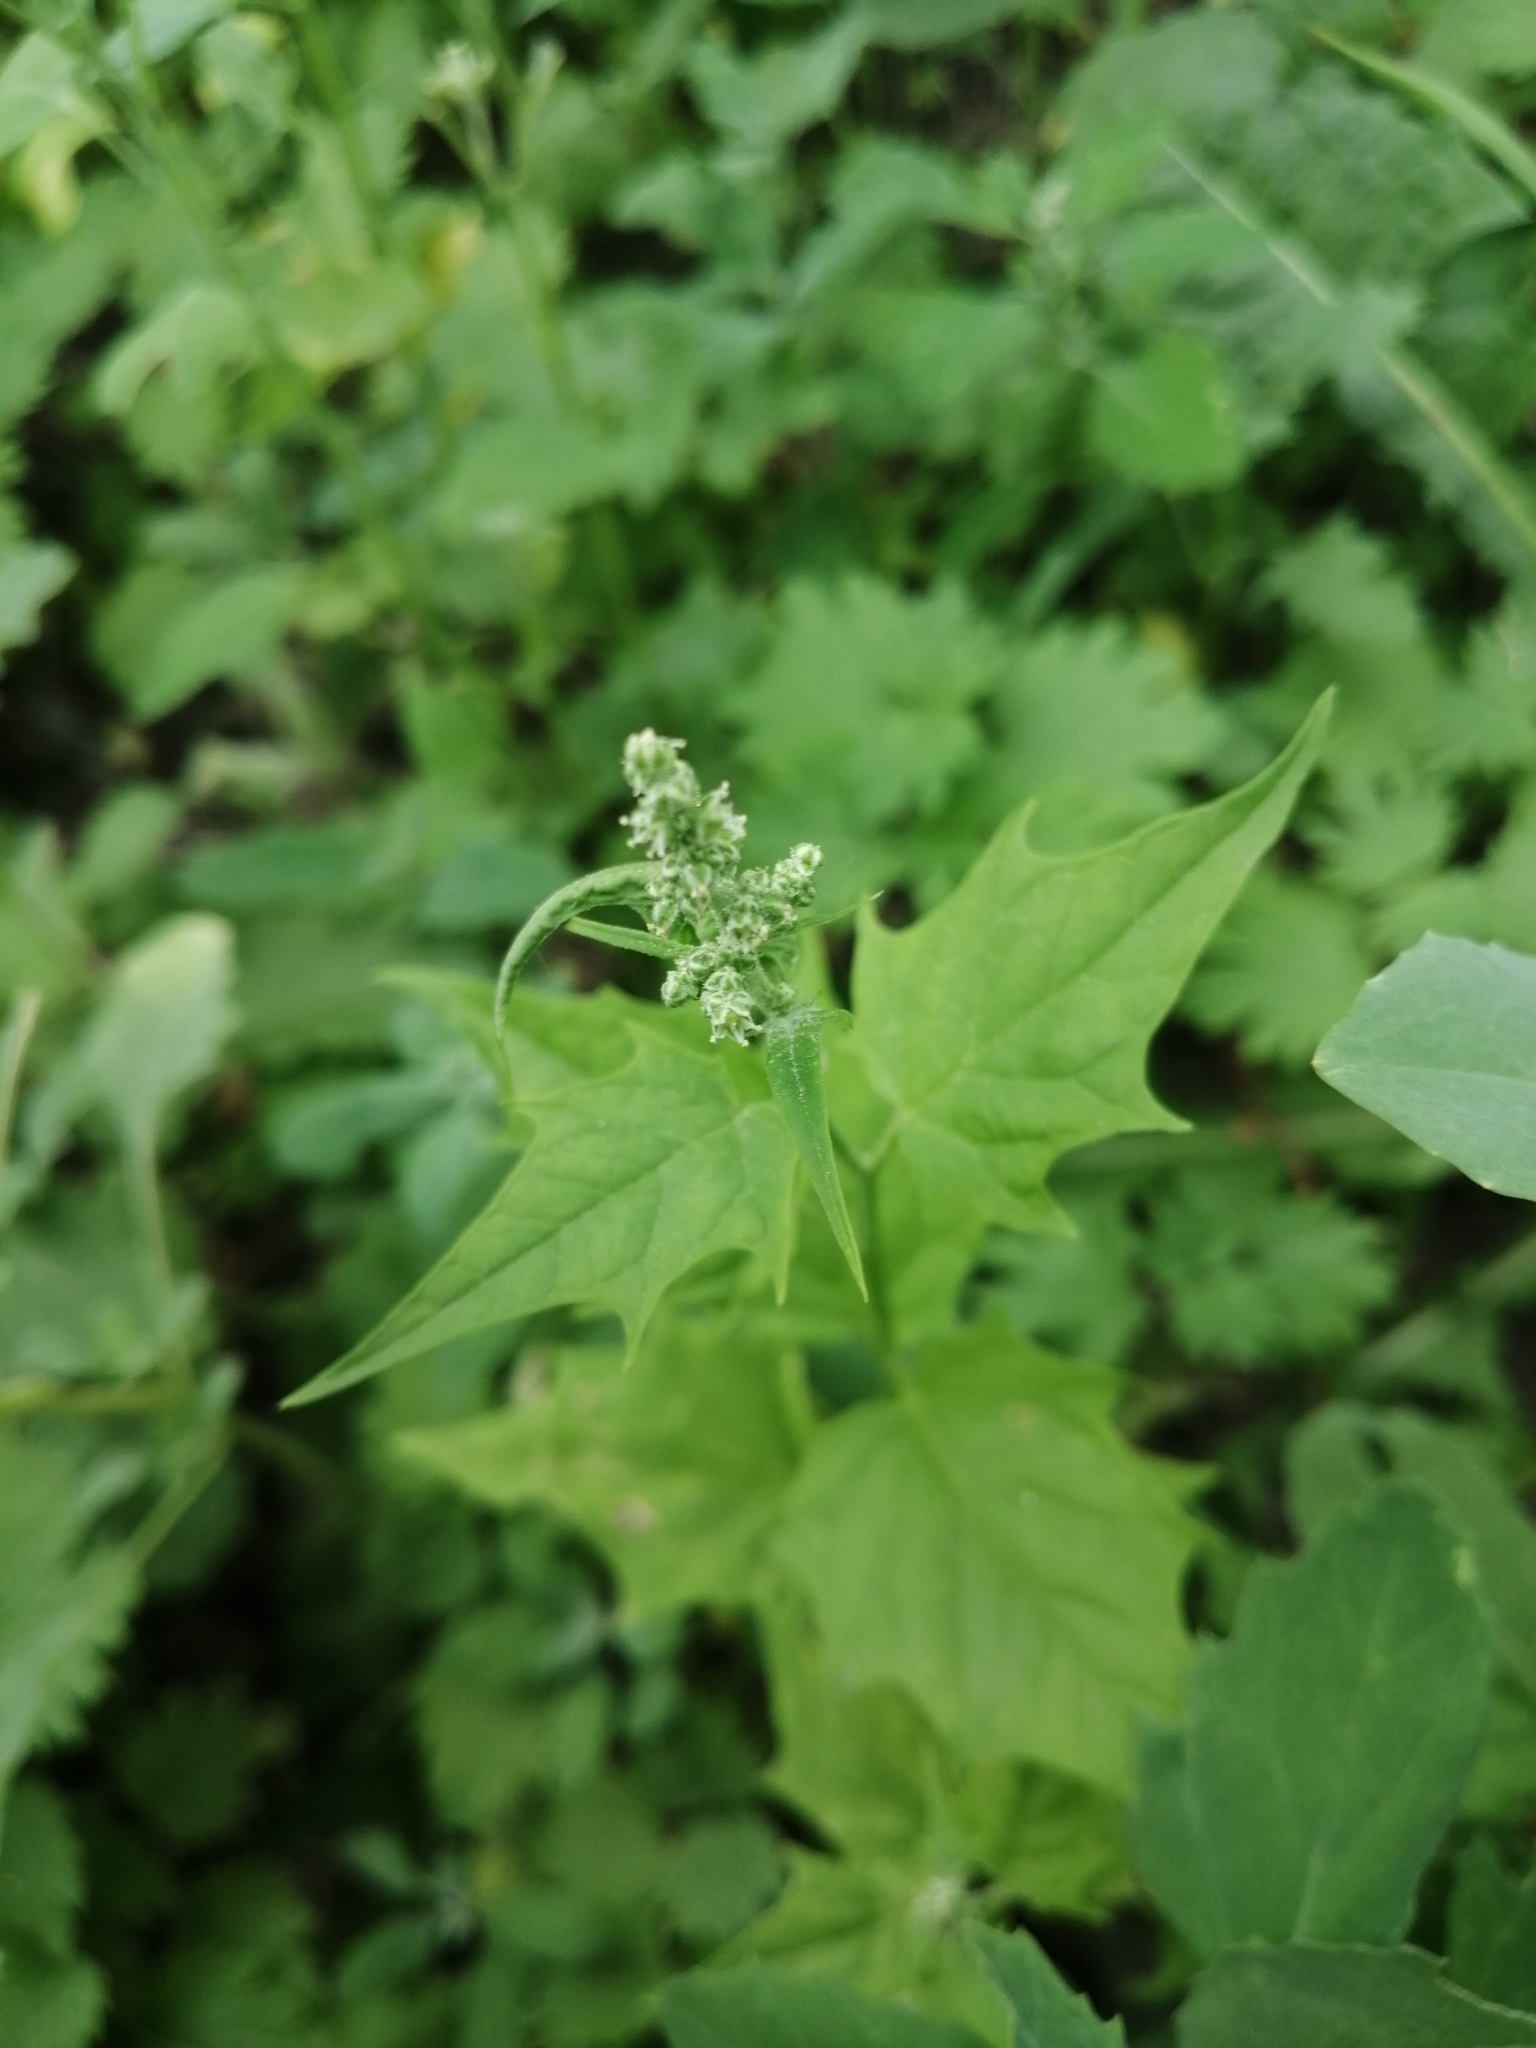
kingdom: Plantae
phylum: Tracheophyta
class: Magnoliopsida
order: Caryophyllales
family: Amaranthaceae
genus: Chenopodiastrum
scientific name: Chenopodiastrum hybridum
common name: Mapleleaf goosefoot
